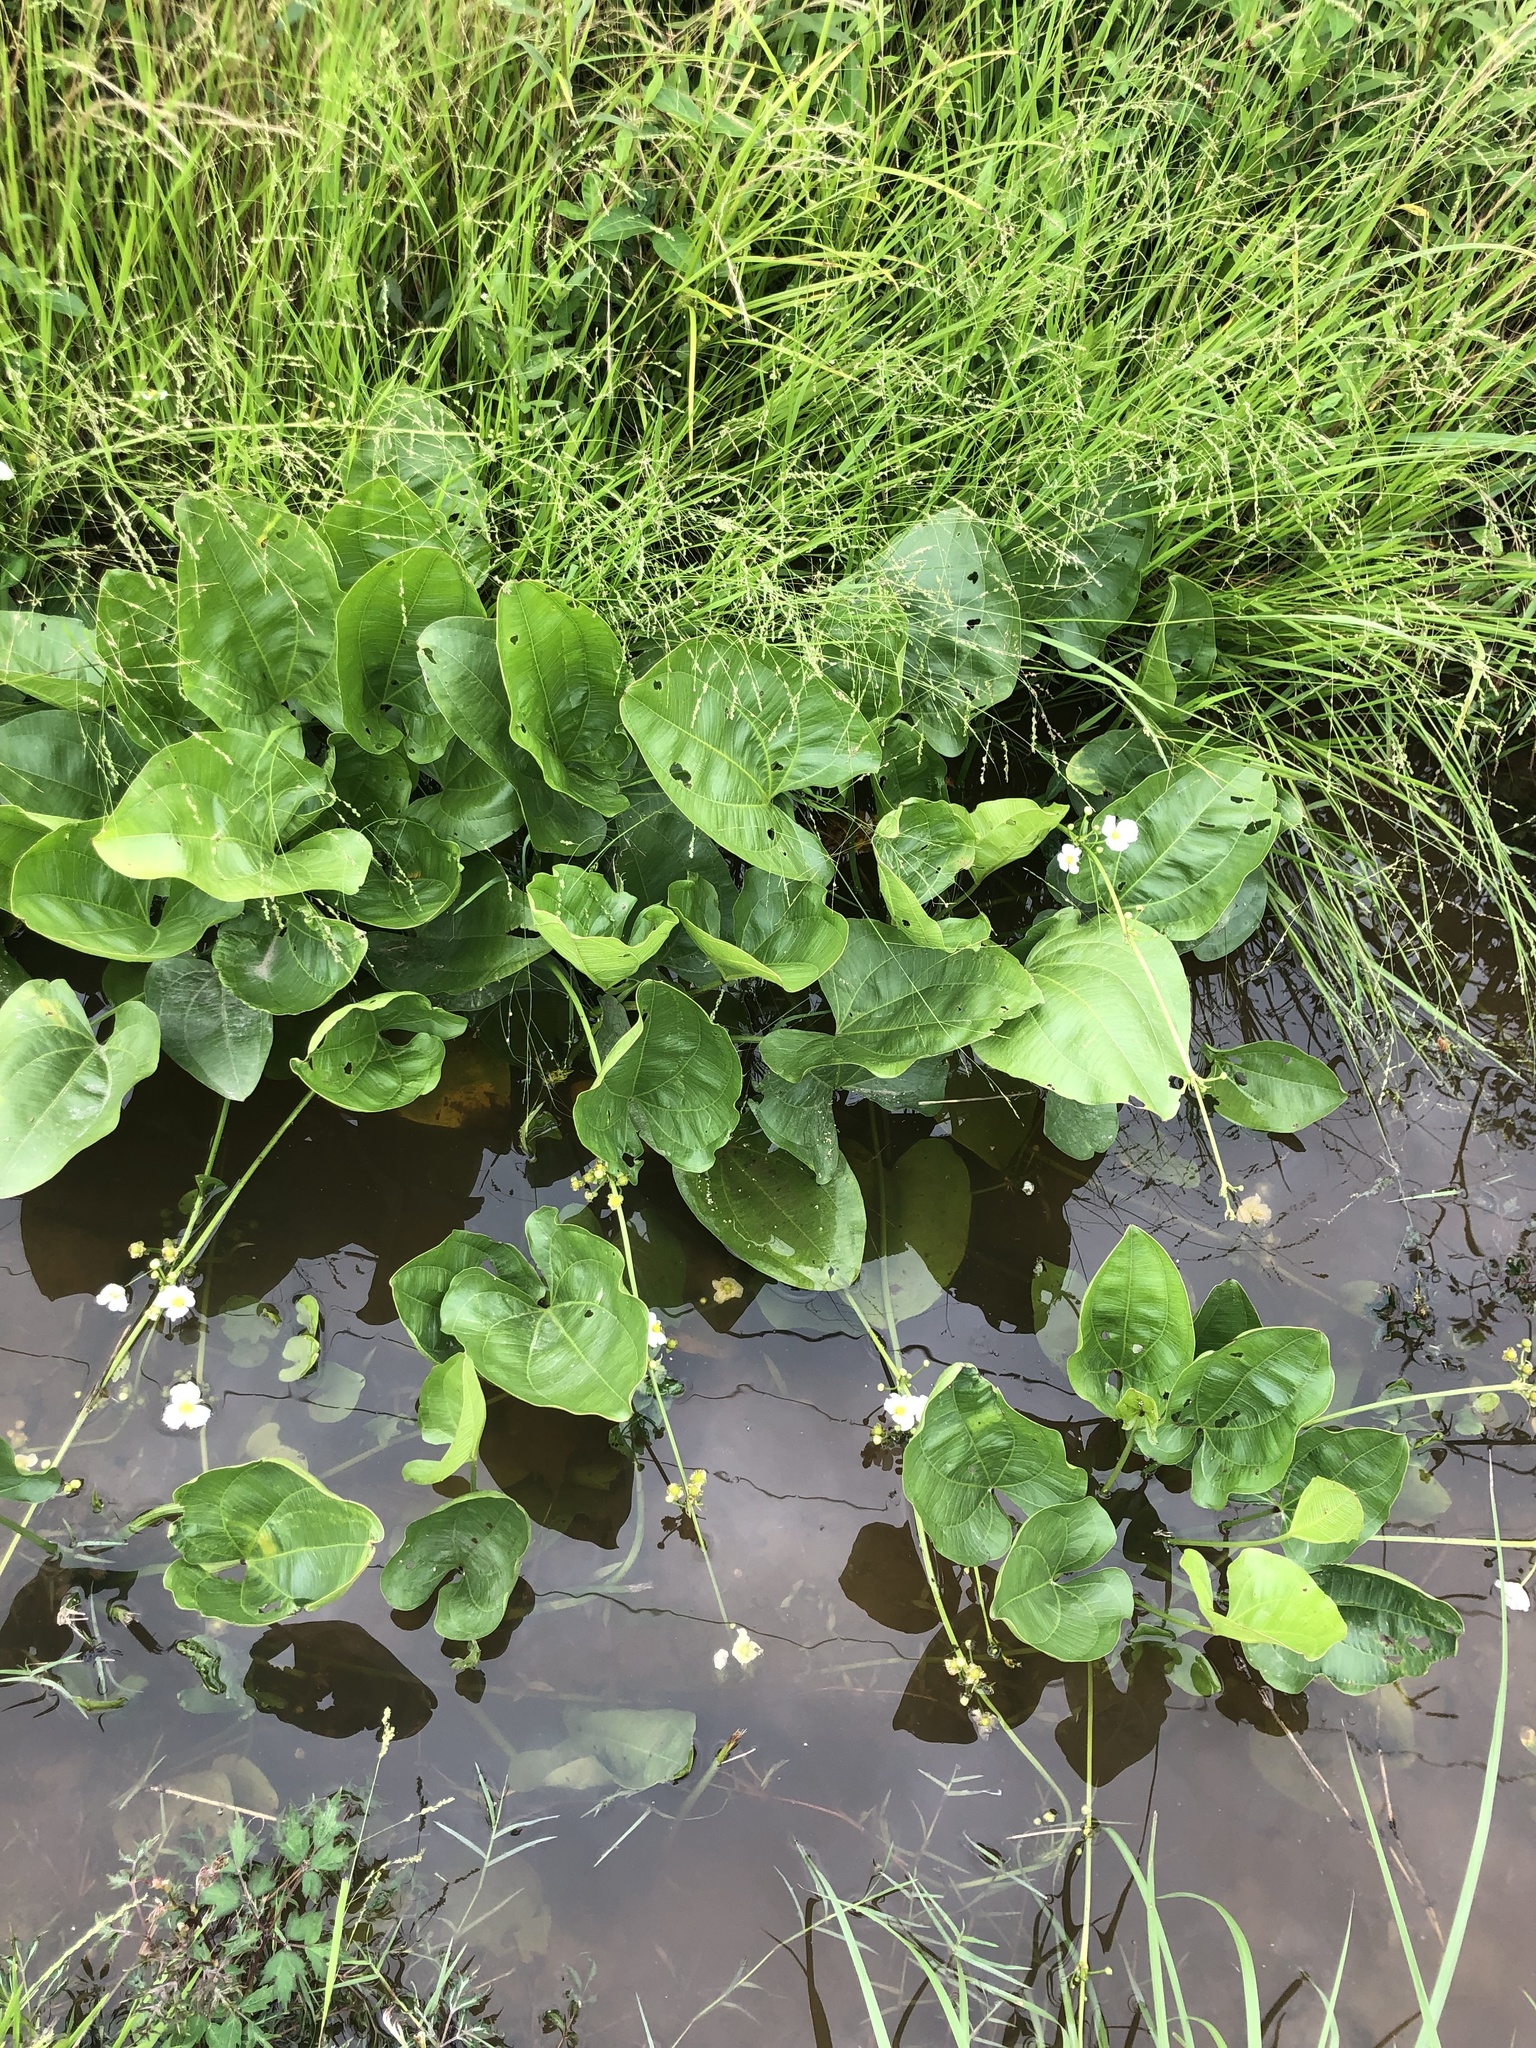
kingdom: Plantae
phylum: Tracheophyta
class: Liliopsida
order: Alismatales
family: Alismataceae
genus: Aquarius
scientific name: Aquarius cordifolius
